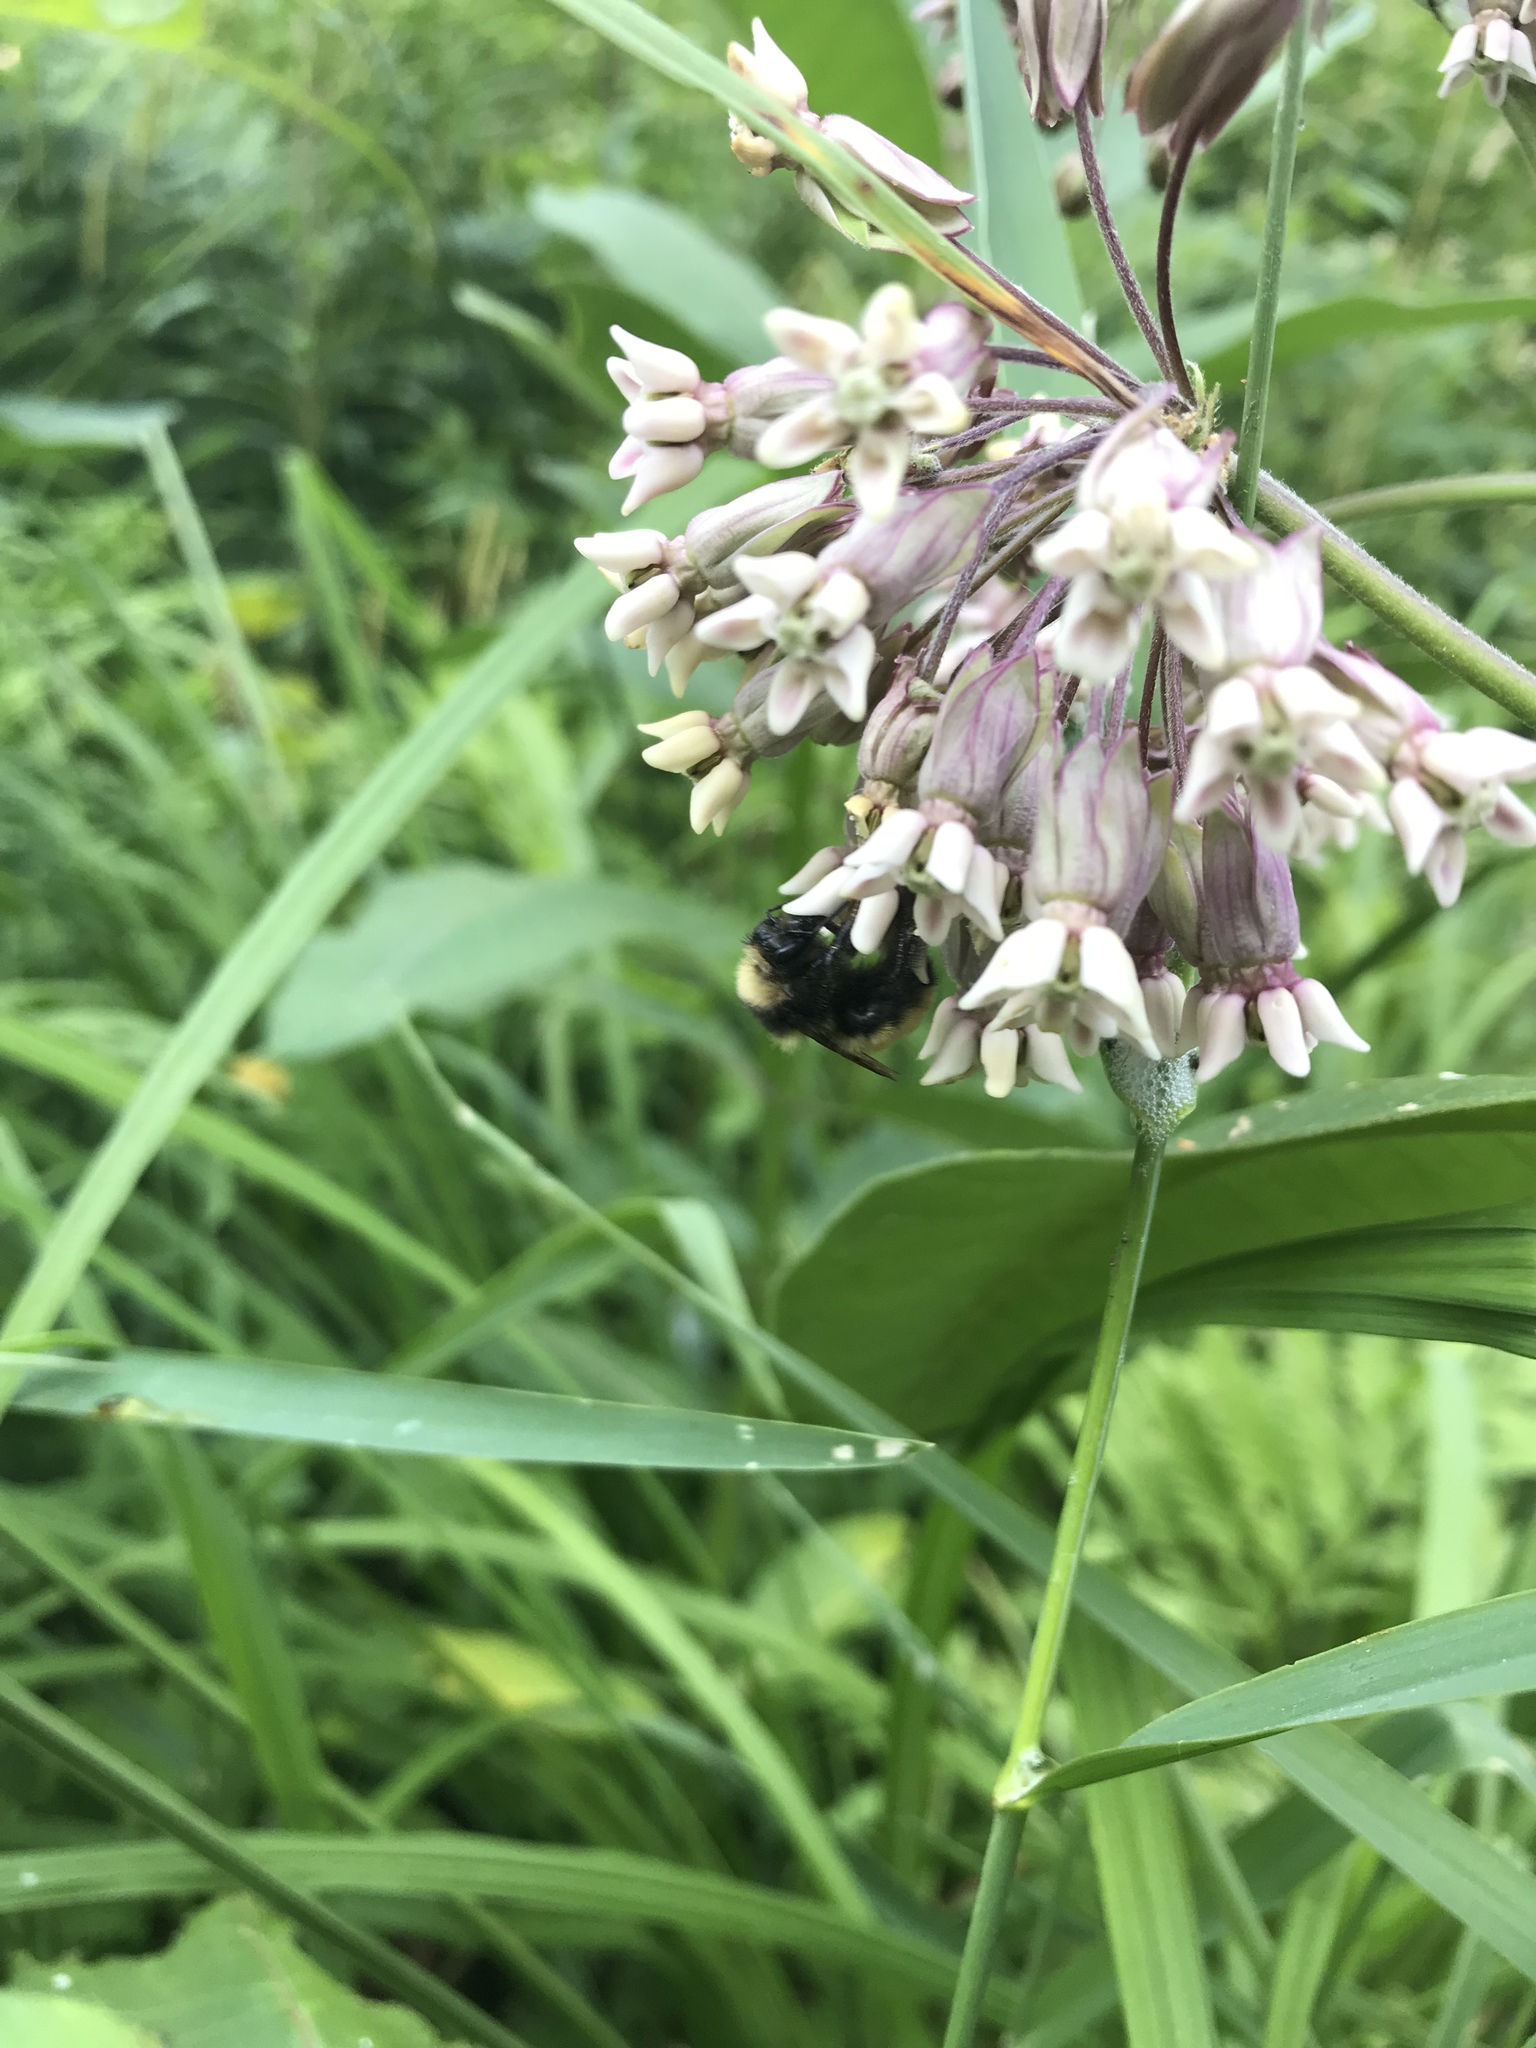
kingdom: Animalia
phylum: Arthropoda
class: Insecta
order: Hymenoptera
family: Apidae
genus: Bombus
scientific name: Bombus borealis
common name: Northern amber bumble bee
